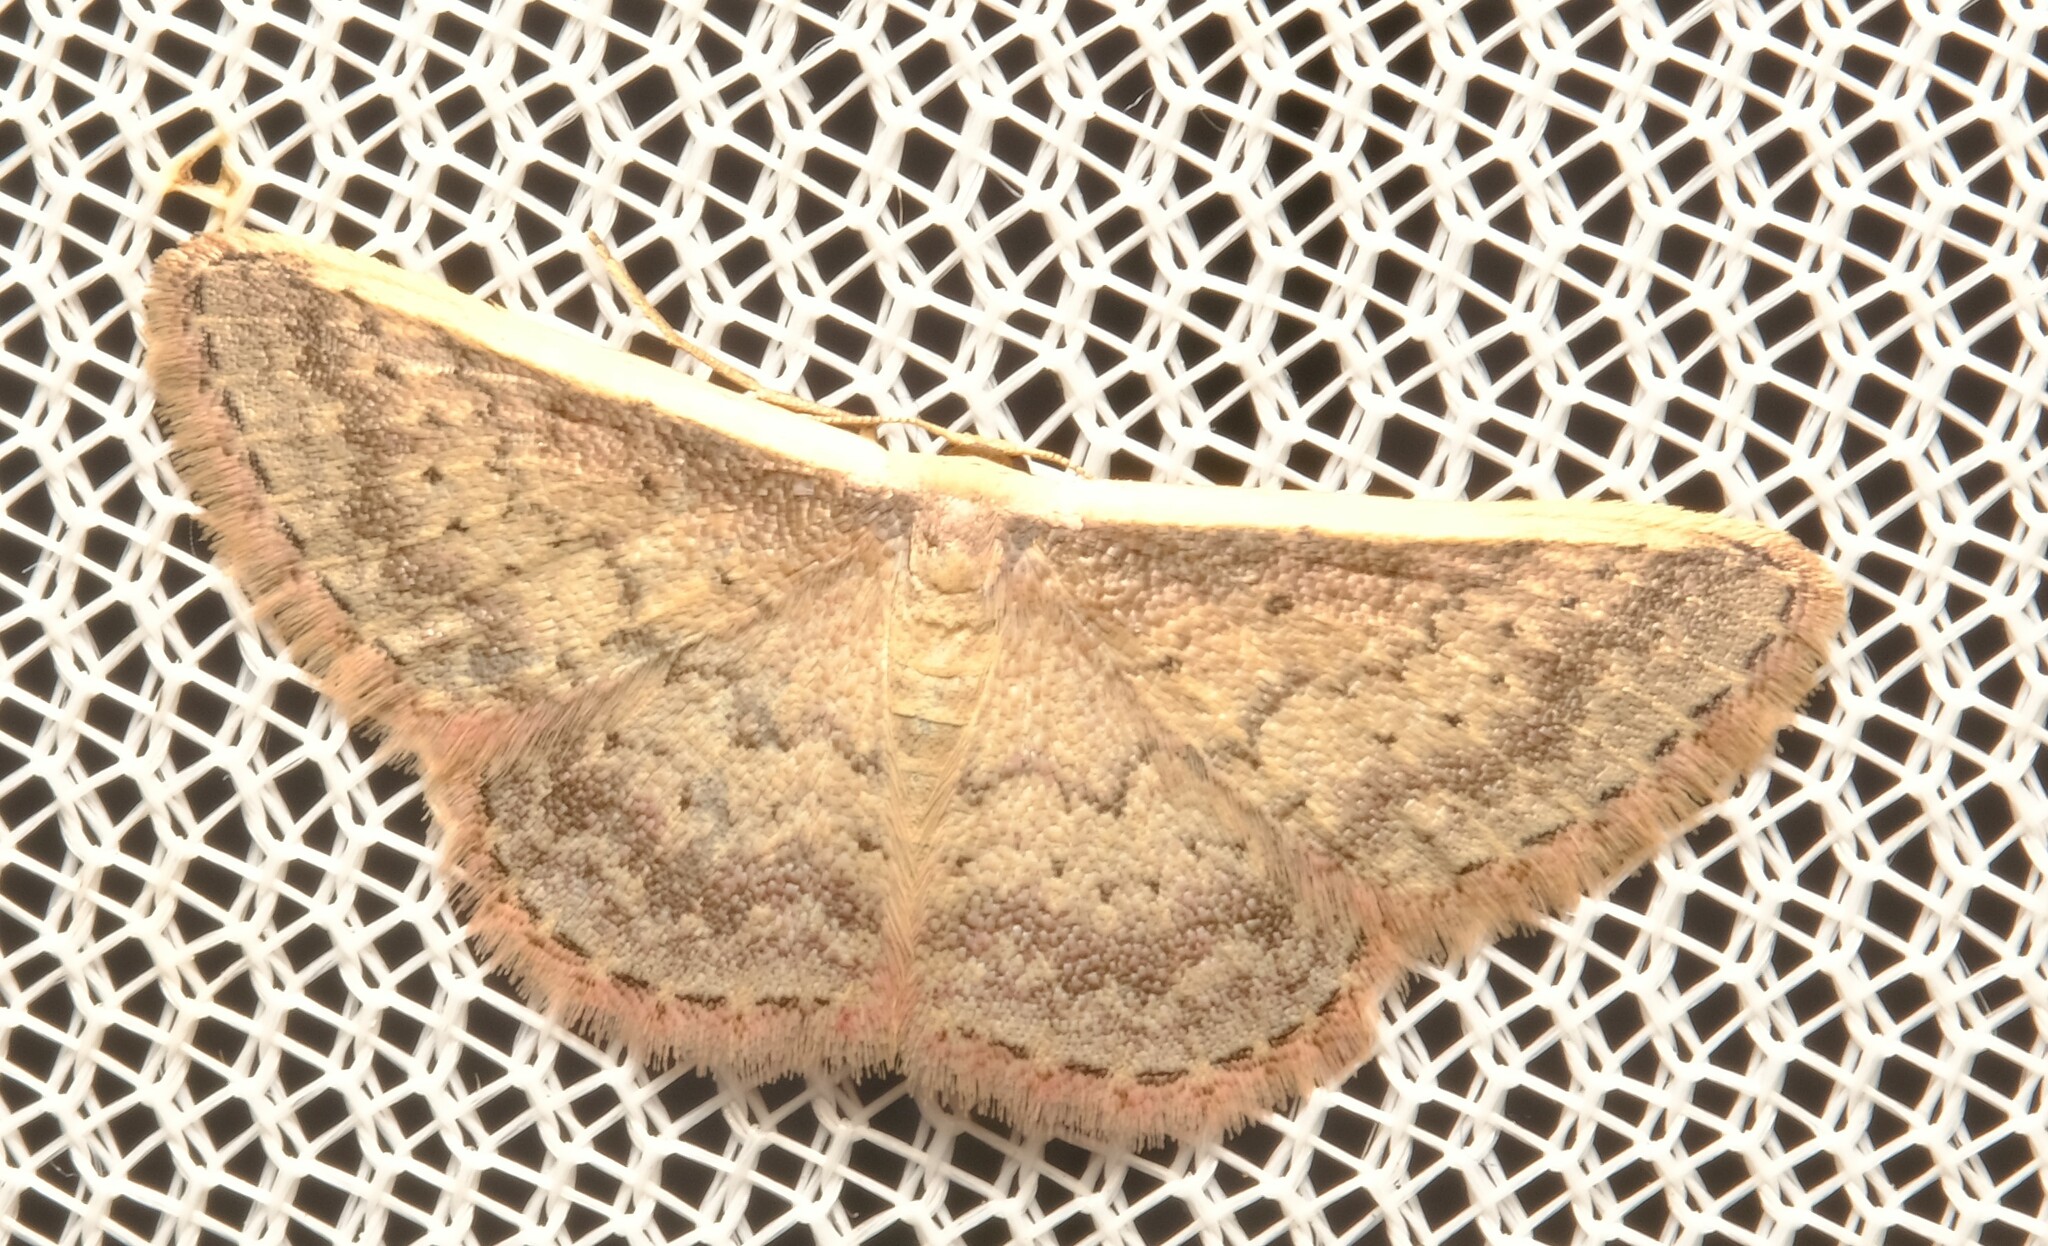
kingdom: Animalia
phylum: Arthropoda
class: Insecta
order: Lepidoptera
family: Geometridae
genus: Idaea
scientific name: Idaea nephelota
